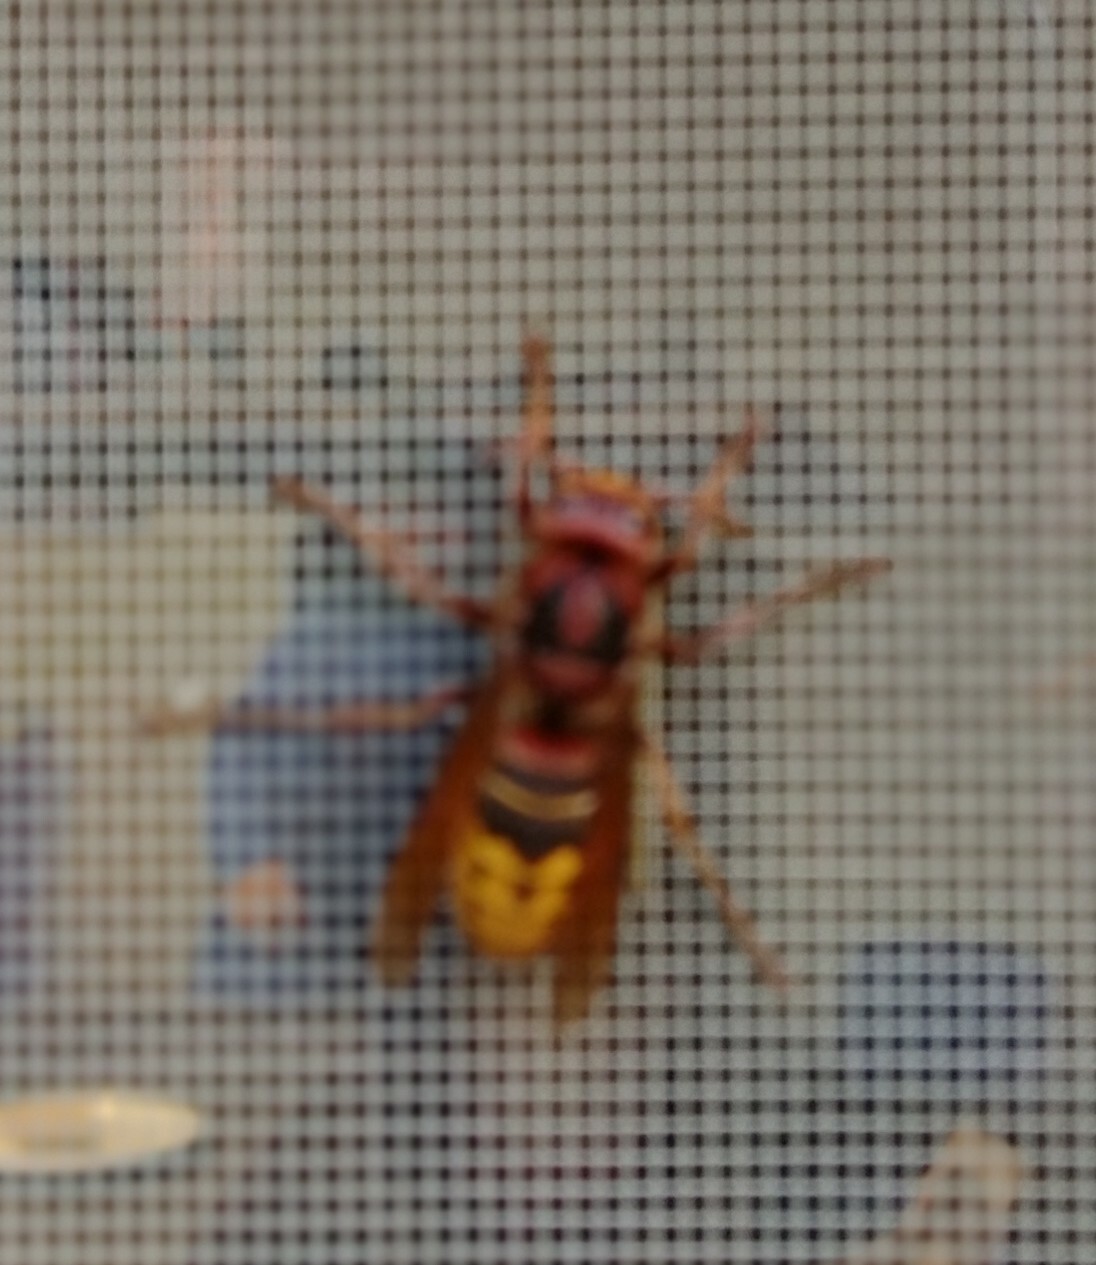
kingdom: Animalia
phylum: Arthropoda
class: Insecta
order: Hymenoptera
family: Vespidae
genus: Vespa
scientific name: Vespa crabro
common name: Hornet
